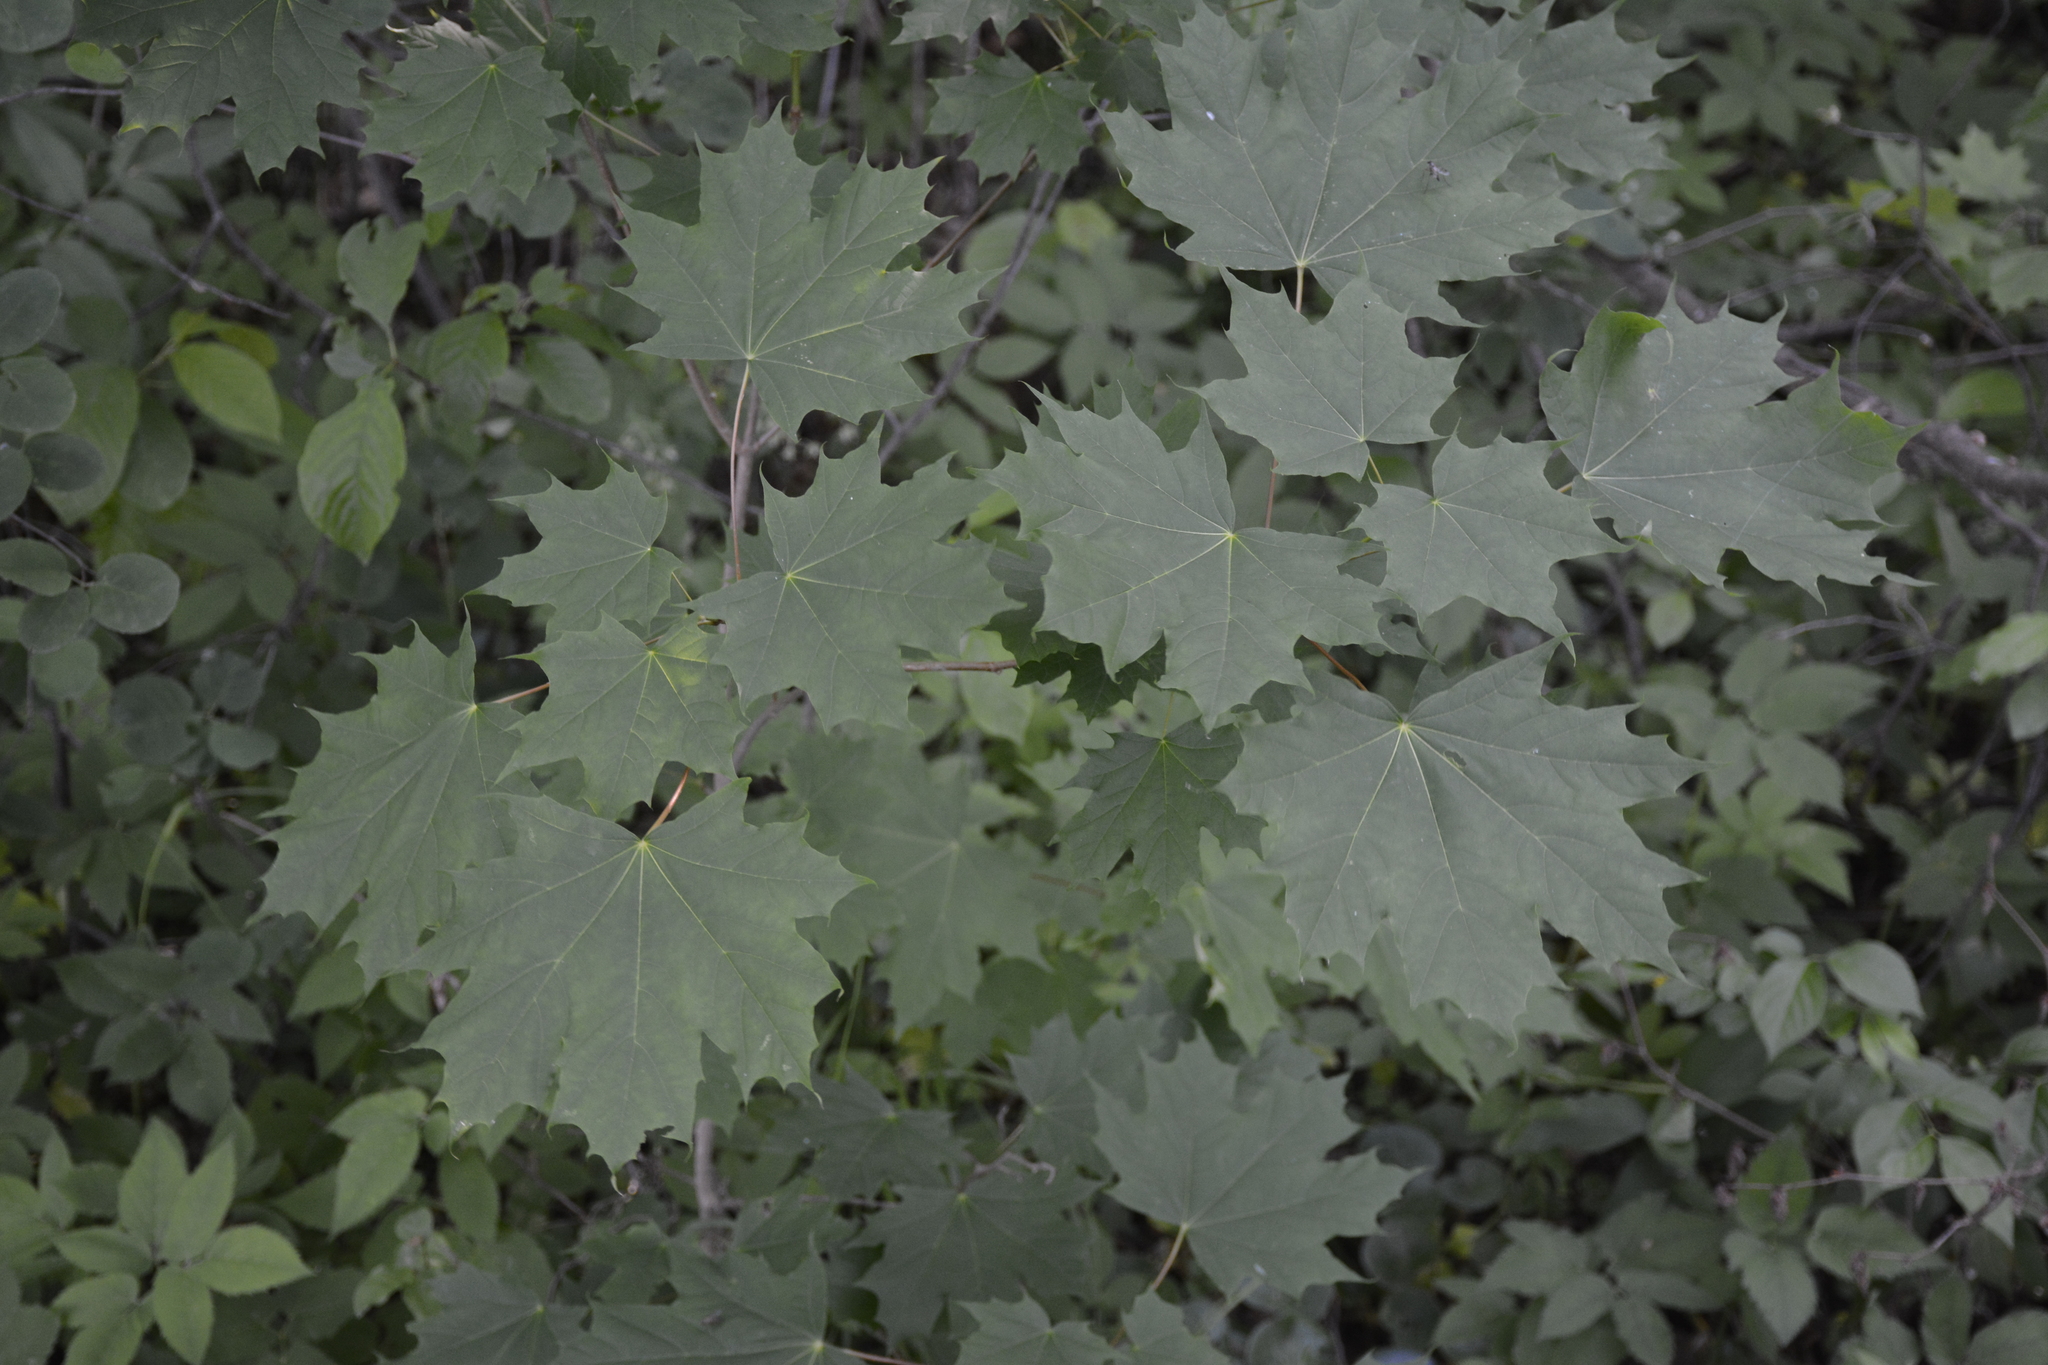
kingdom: Plantae
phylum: Tracheophyta
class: Magnoliopsida
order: Sapindales
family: Sapindaceae
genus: Acer
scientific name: Acer platanoides
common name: Norway maple
